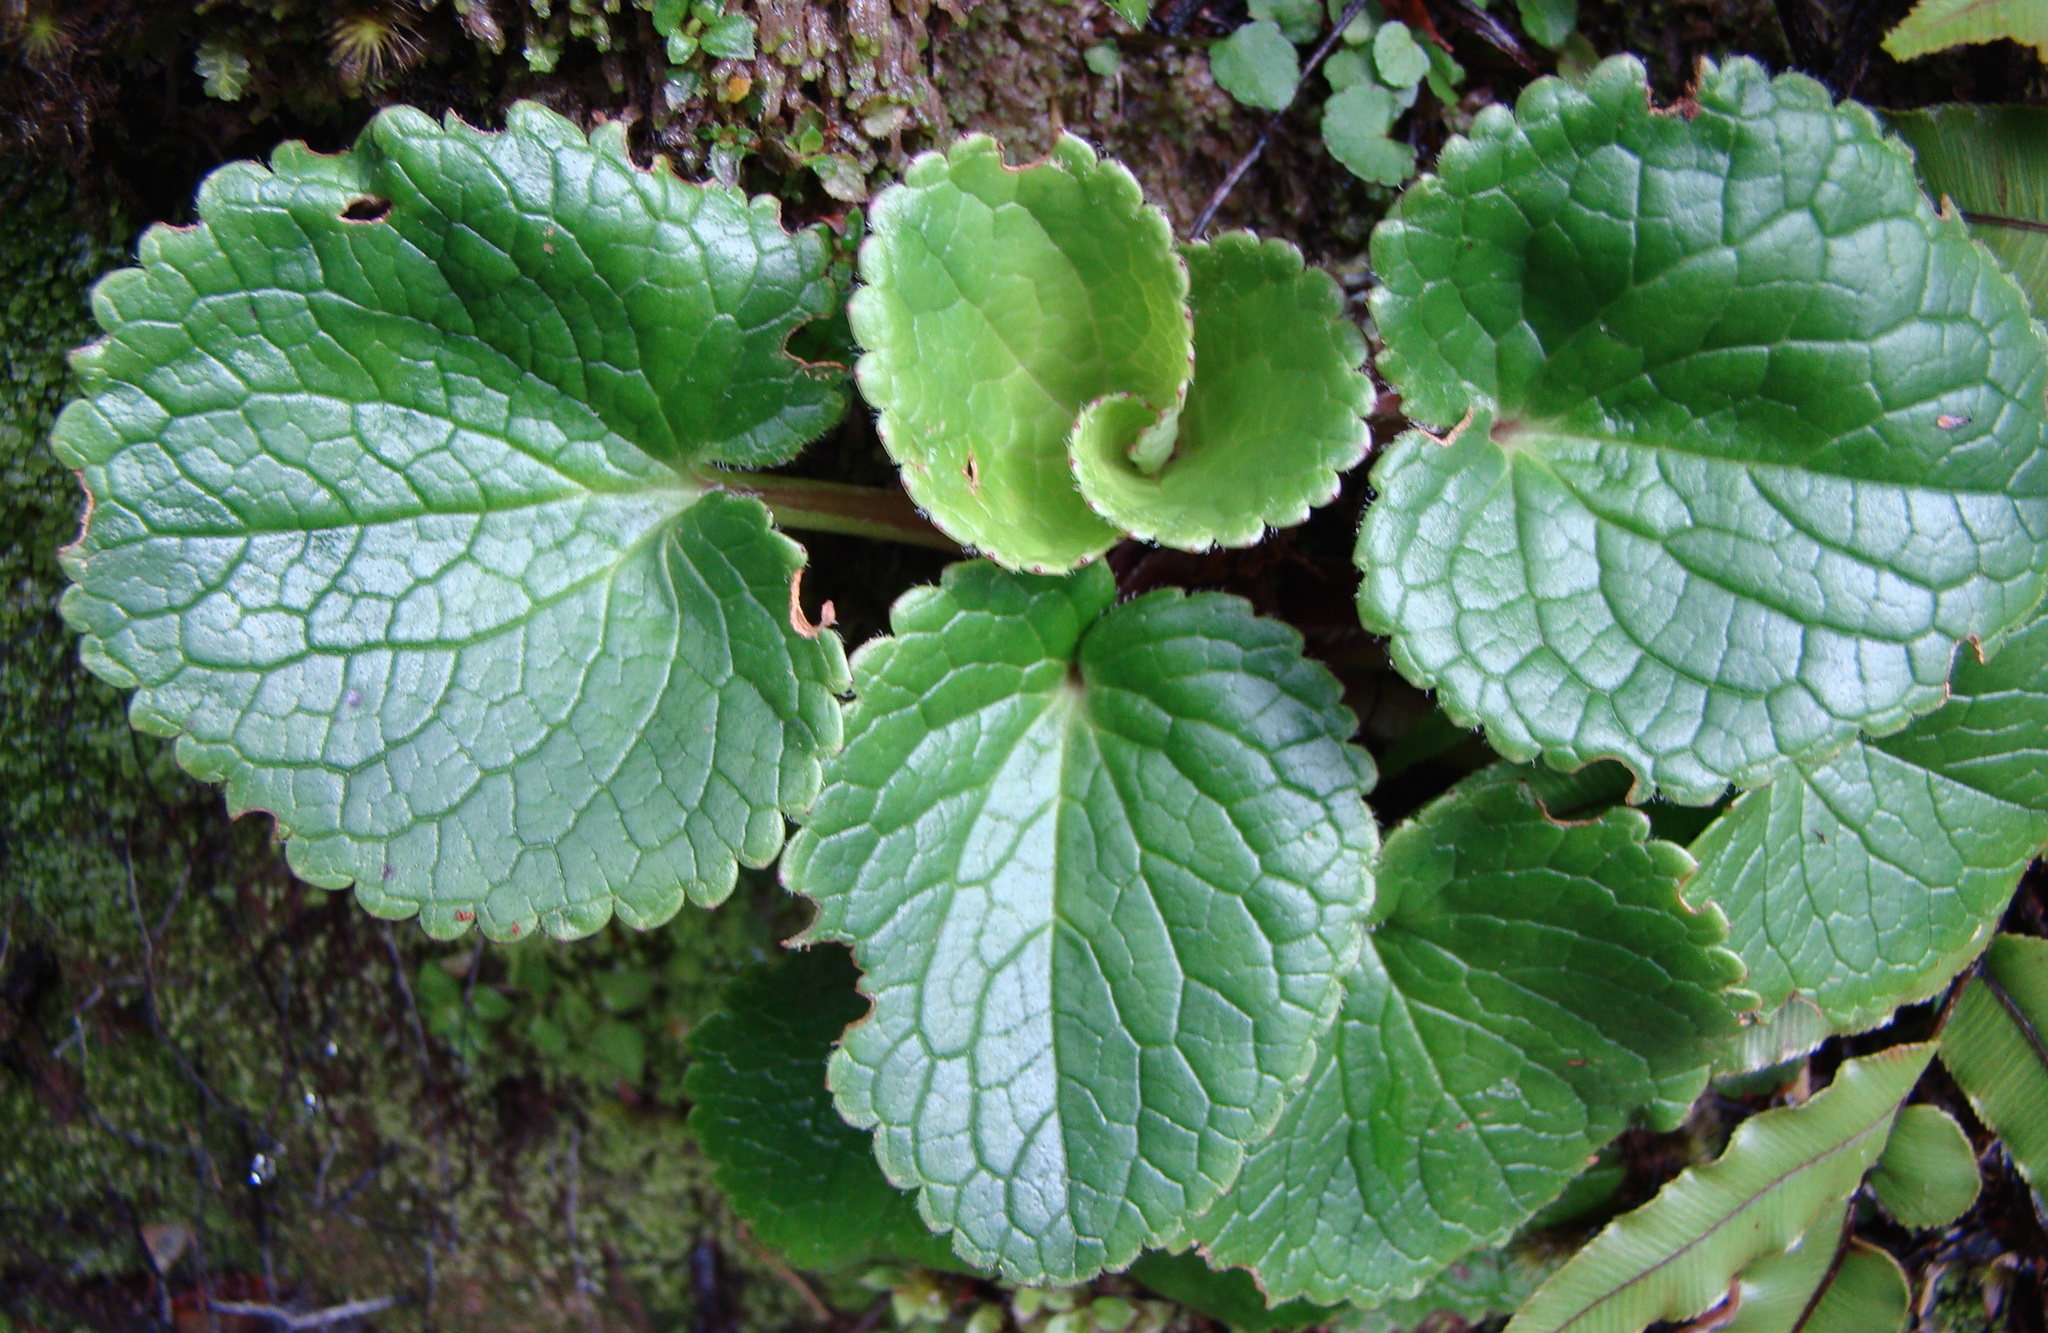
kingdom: Plantae
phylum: Tracheophyta
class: Magnoliopsida
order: Lamiales
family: Plantaginaceae
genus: Ourisia
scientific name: Ourisia macrocarpa
